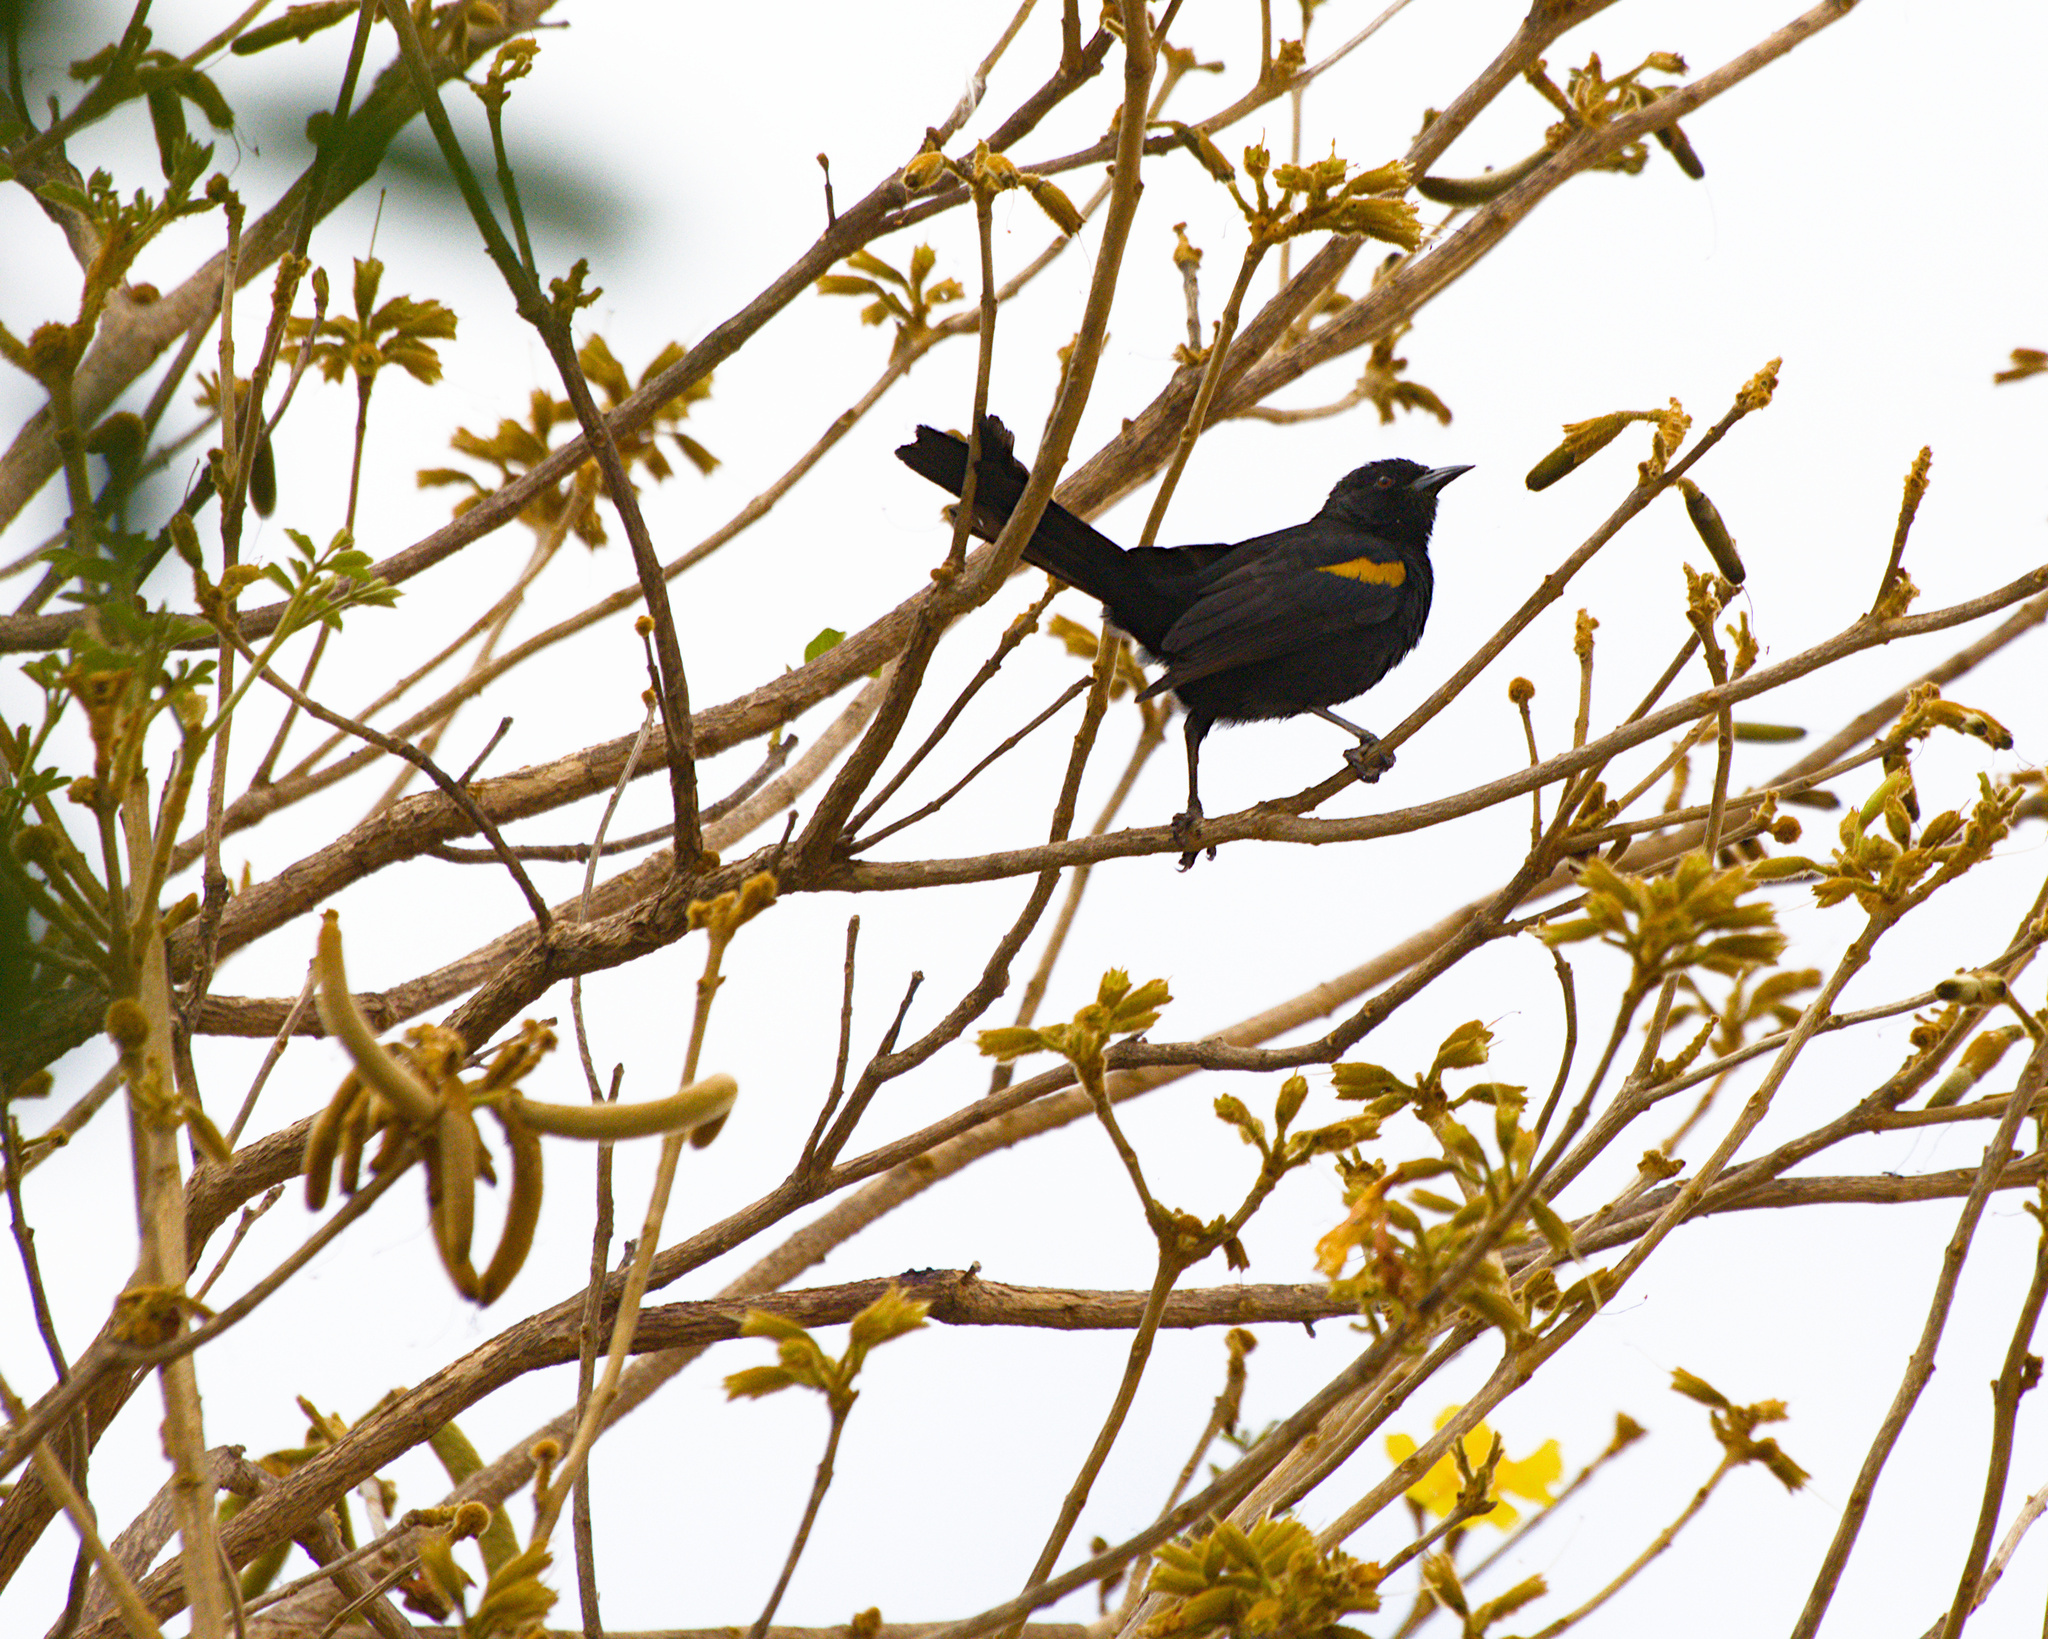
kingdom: Animalia
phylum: Chordata
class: Aves
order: Passeriformes
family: Icteridae
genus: Icterus
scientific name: Icterus cayanensis
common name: Epaulet oriole
